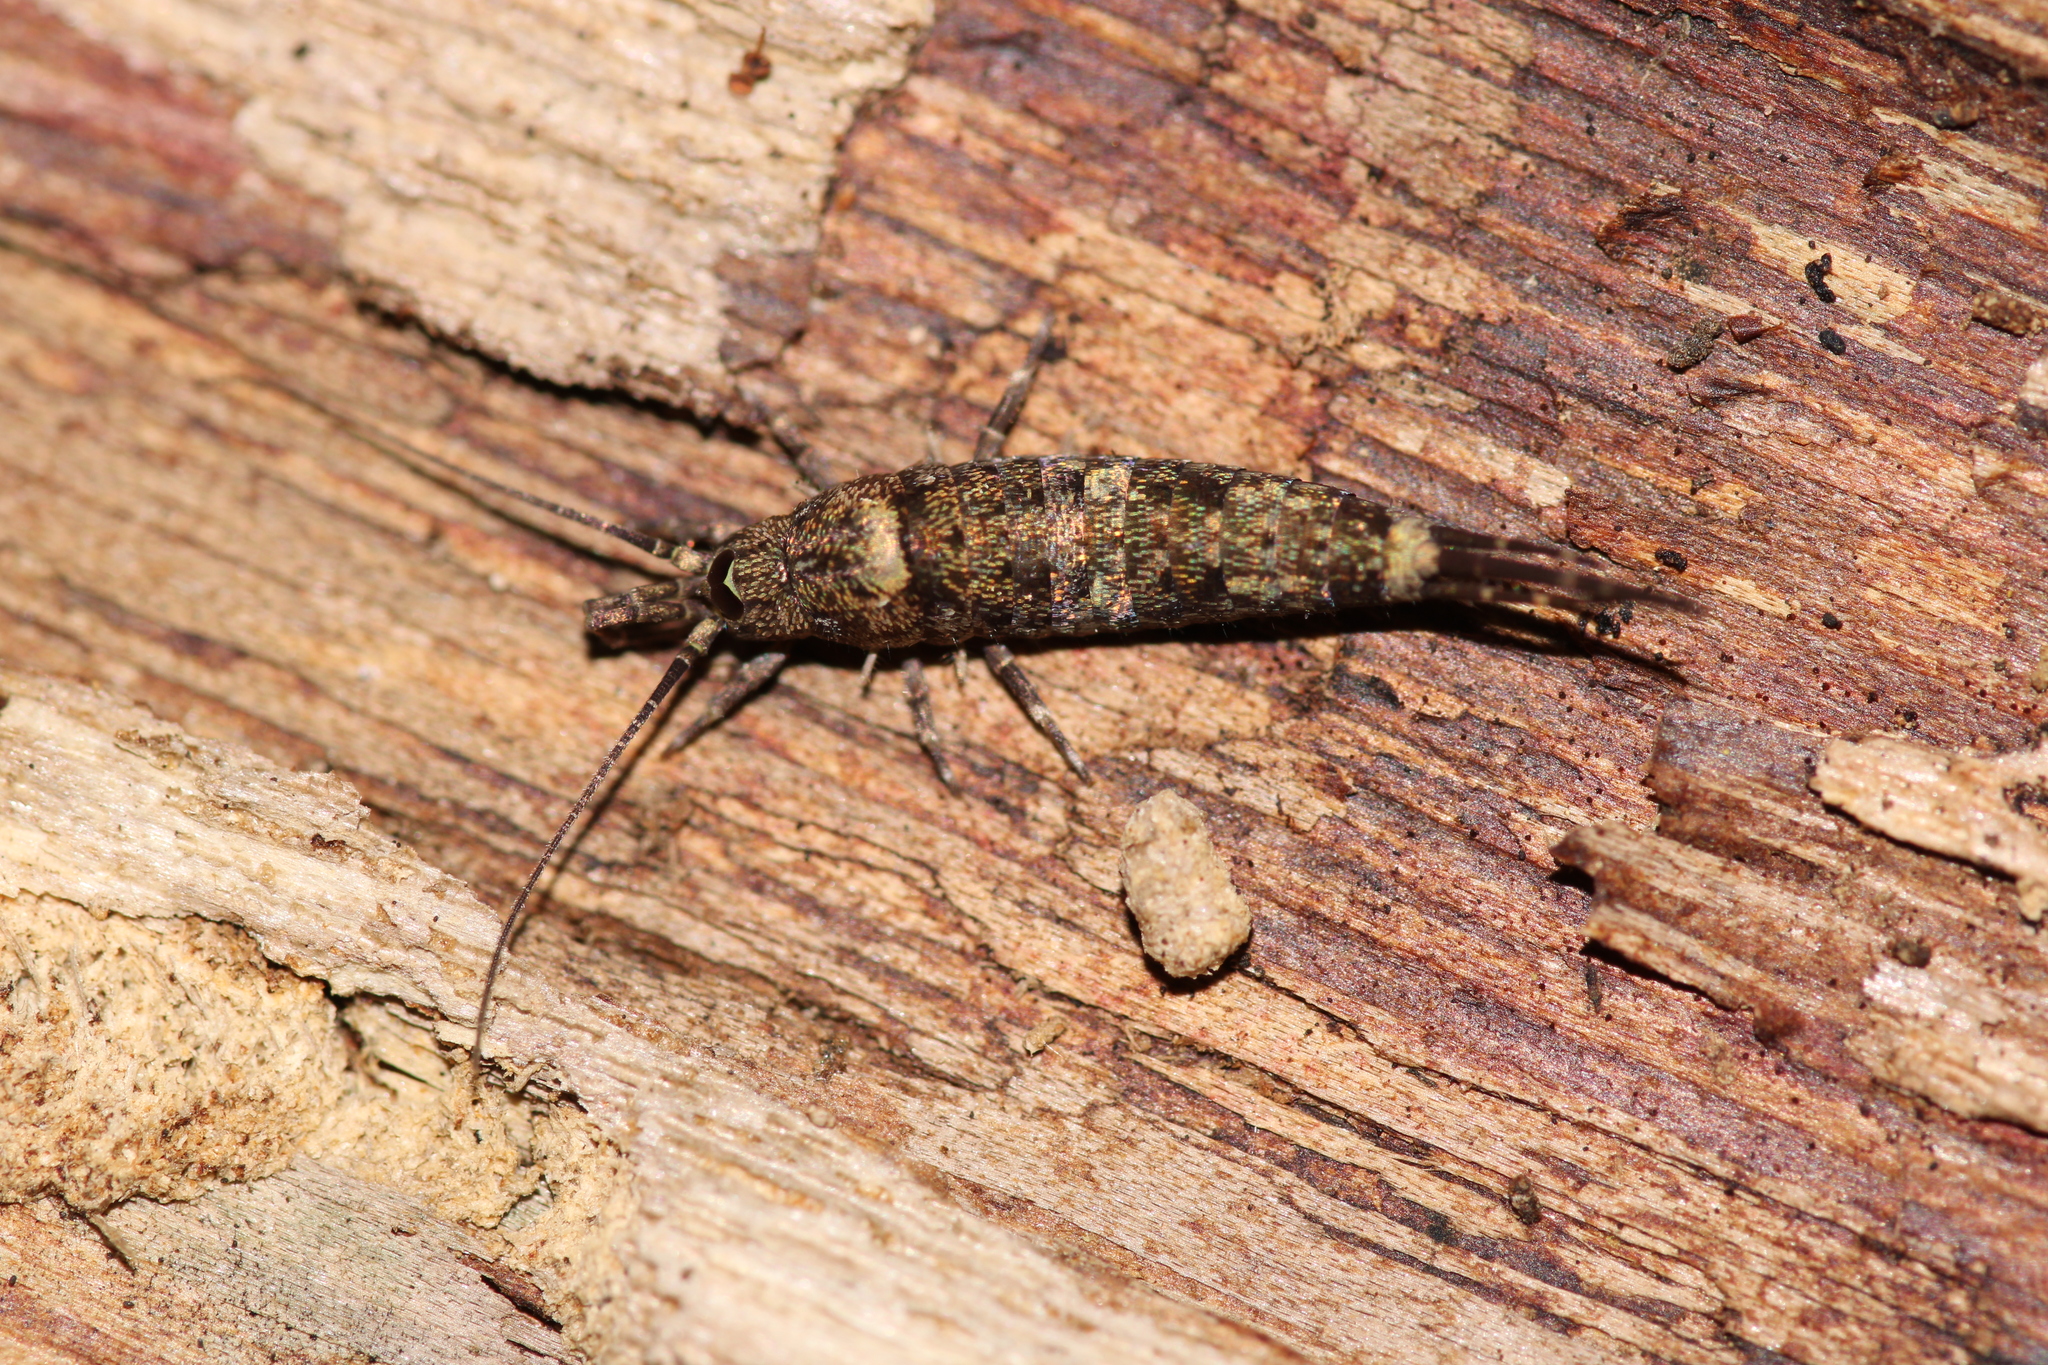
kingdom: Animalia
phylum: Arthropoda
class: Insecta
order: Archaeognatha
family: Machilidae
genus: Trigoniophthalmus
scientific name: Trigoniophthalmus alternatus
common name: Jumping bristletail
